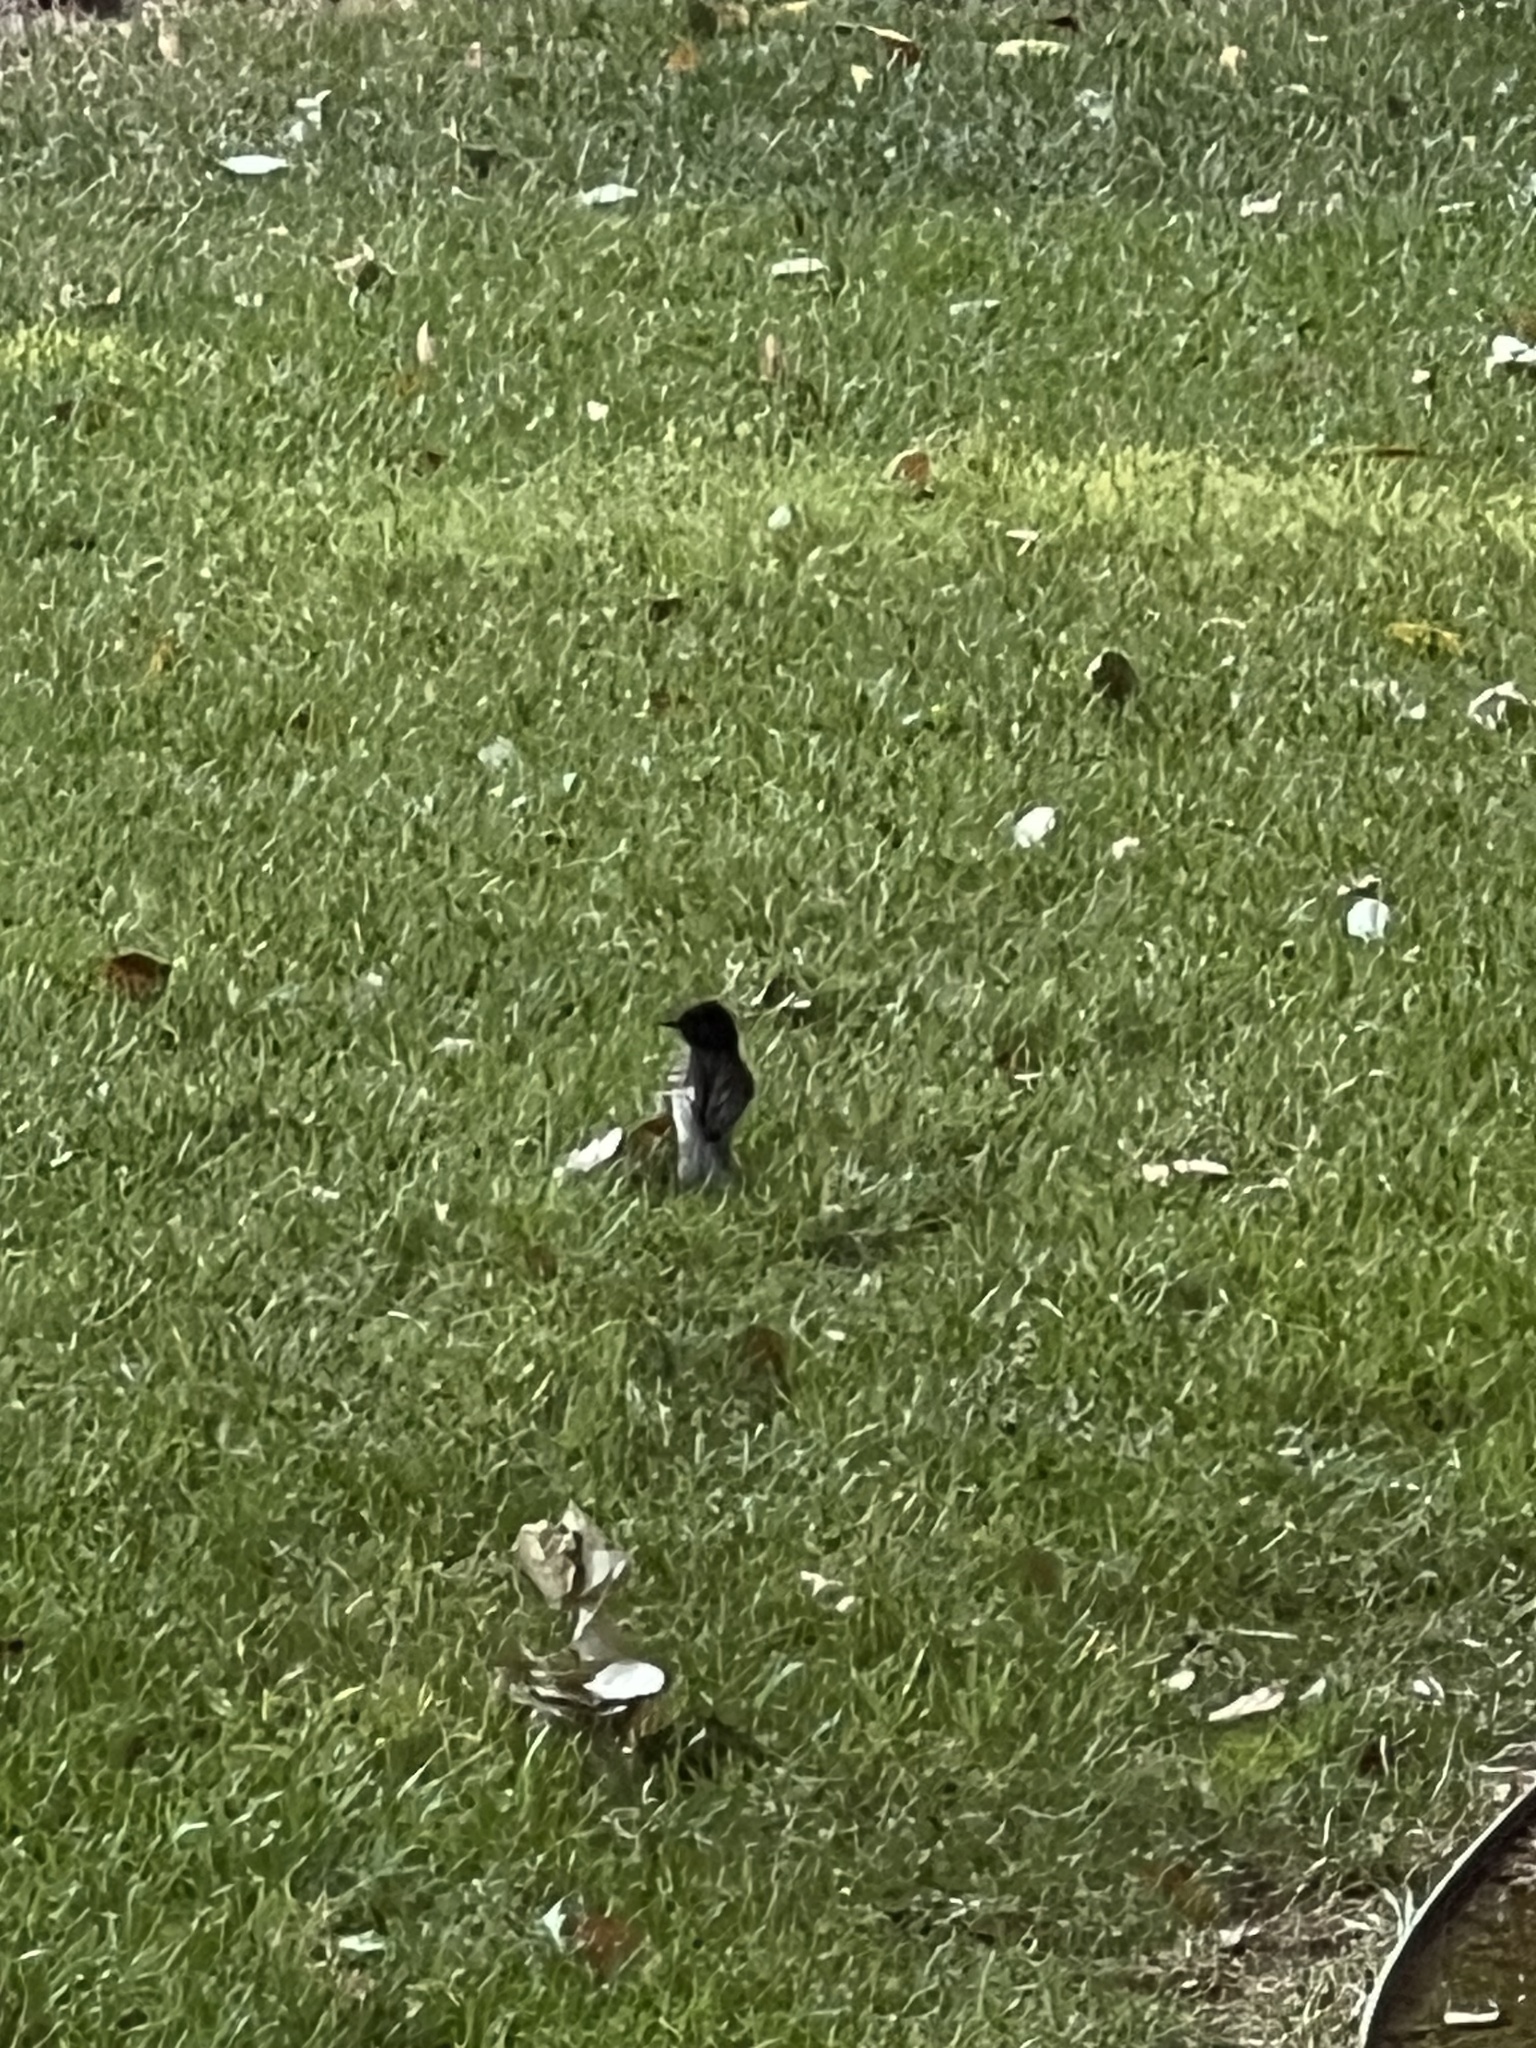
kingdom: Animalia
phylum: Chordata
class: Aves
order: Passeriformes
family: Tyrannidae
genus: Sayornis
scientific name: Sayornis nigricans
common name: Black phoebe
